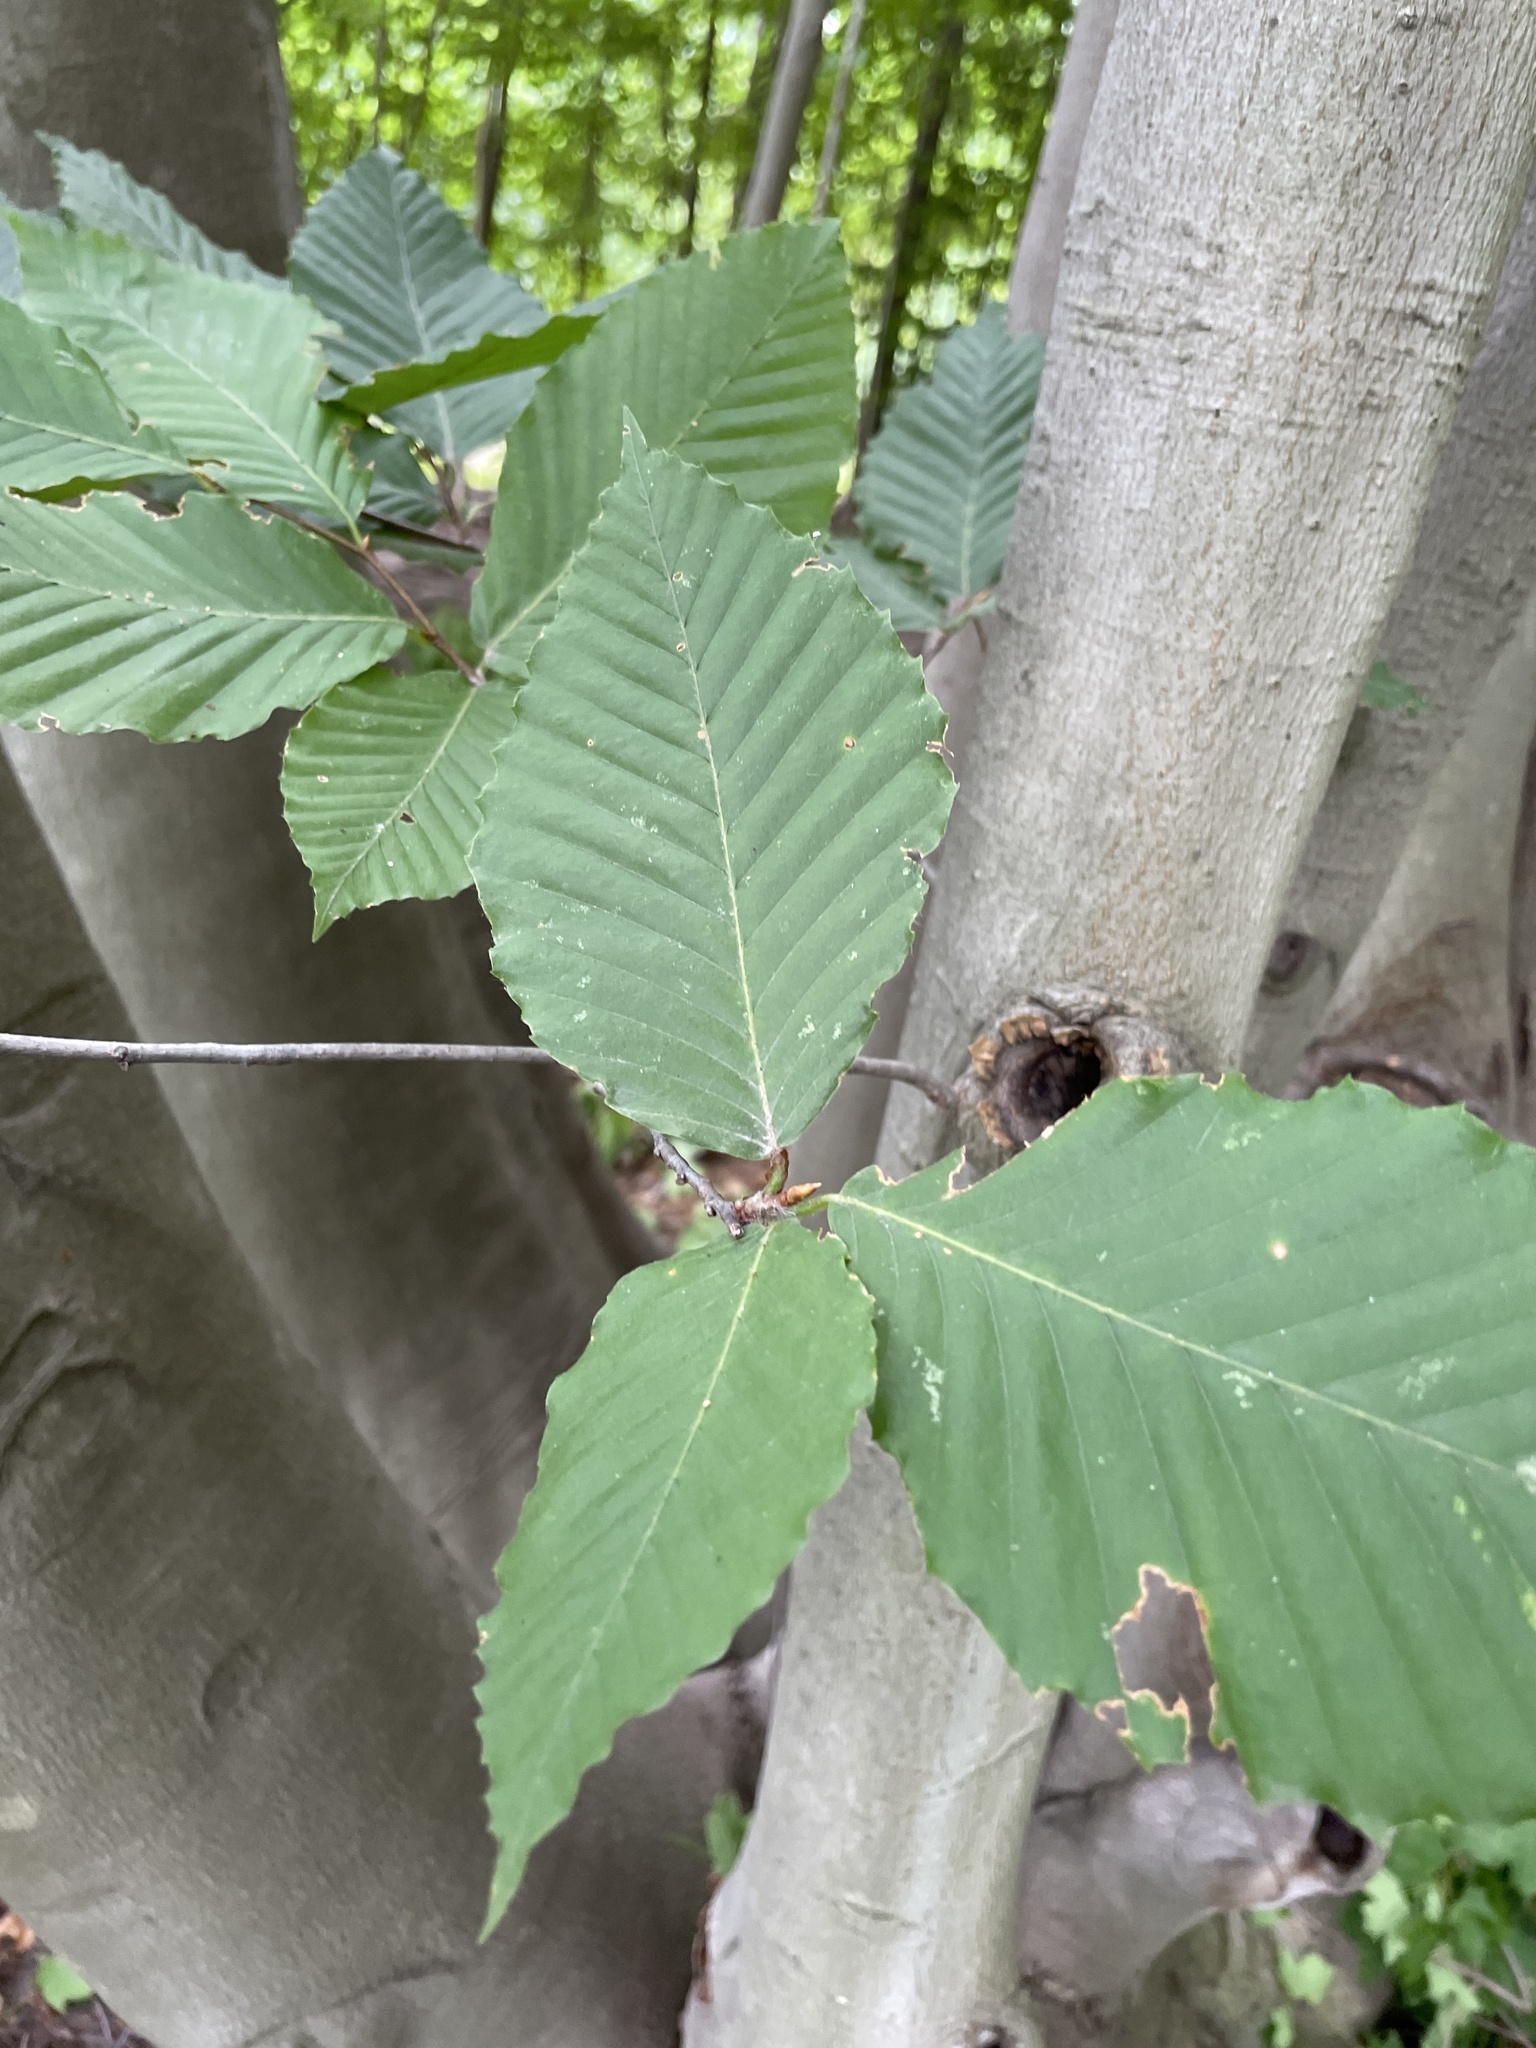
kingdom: Plantae
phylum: Tracheophyta
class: Magnoliopsida
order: Fagales
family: Fagaceae
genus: Fagus
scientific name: Fagus grandifolia
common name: American beech
